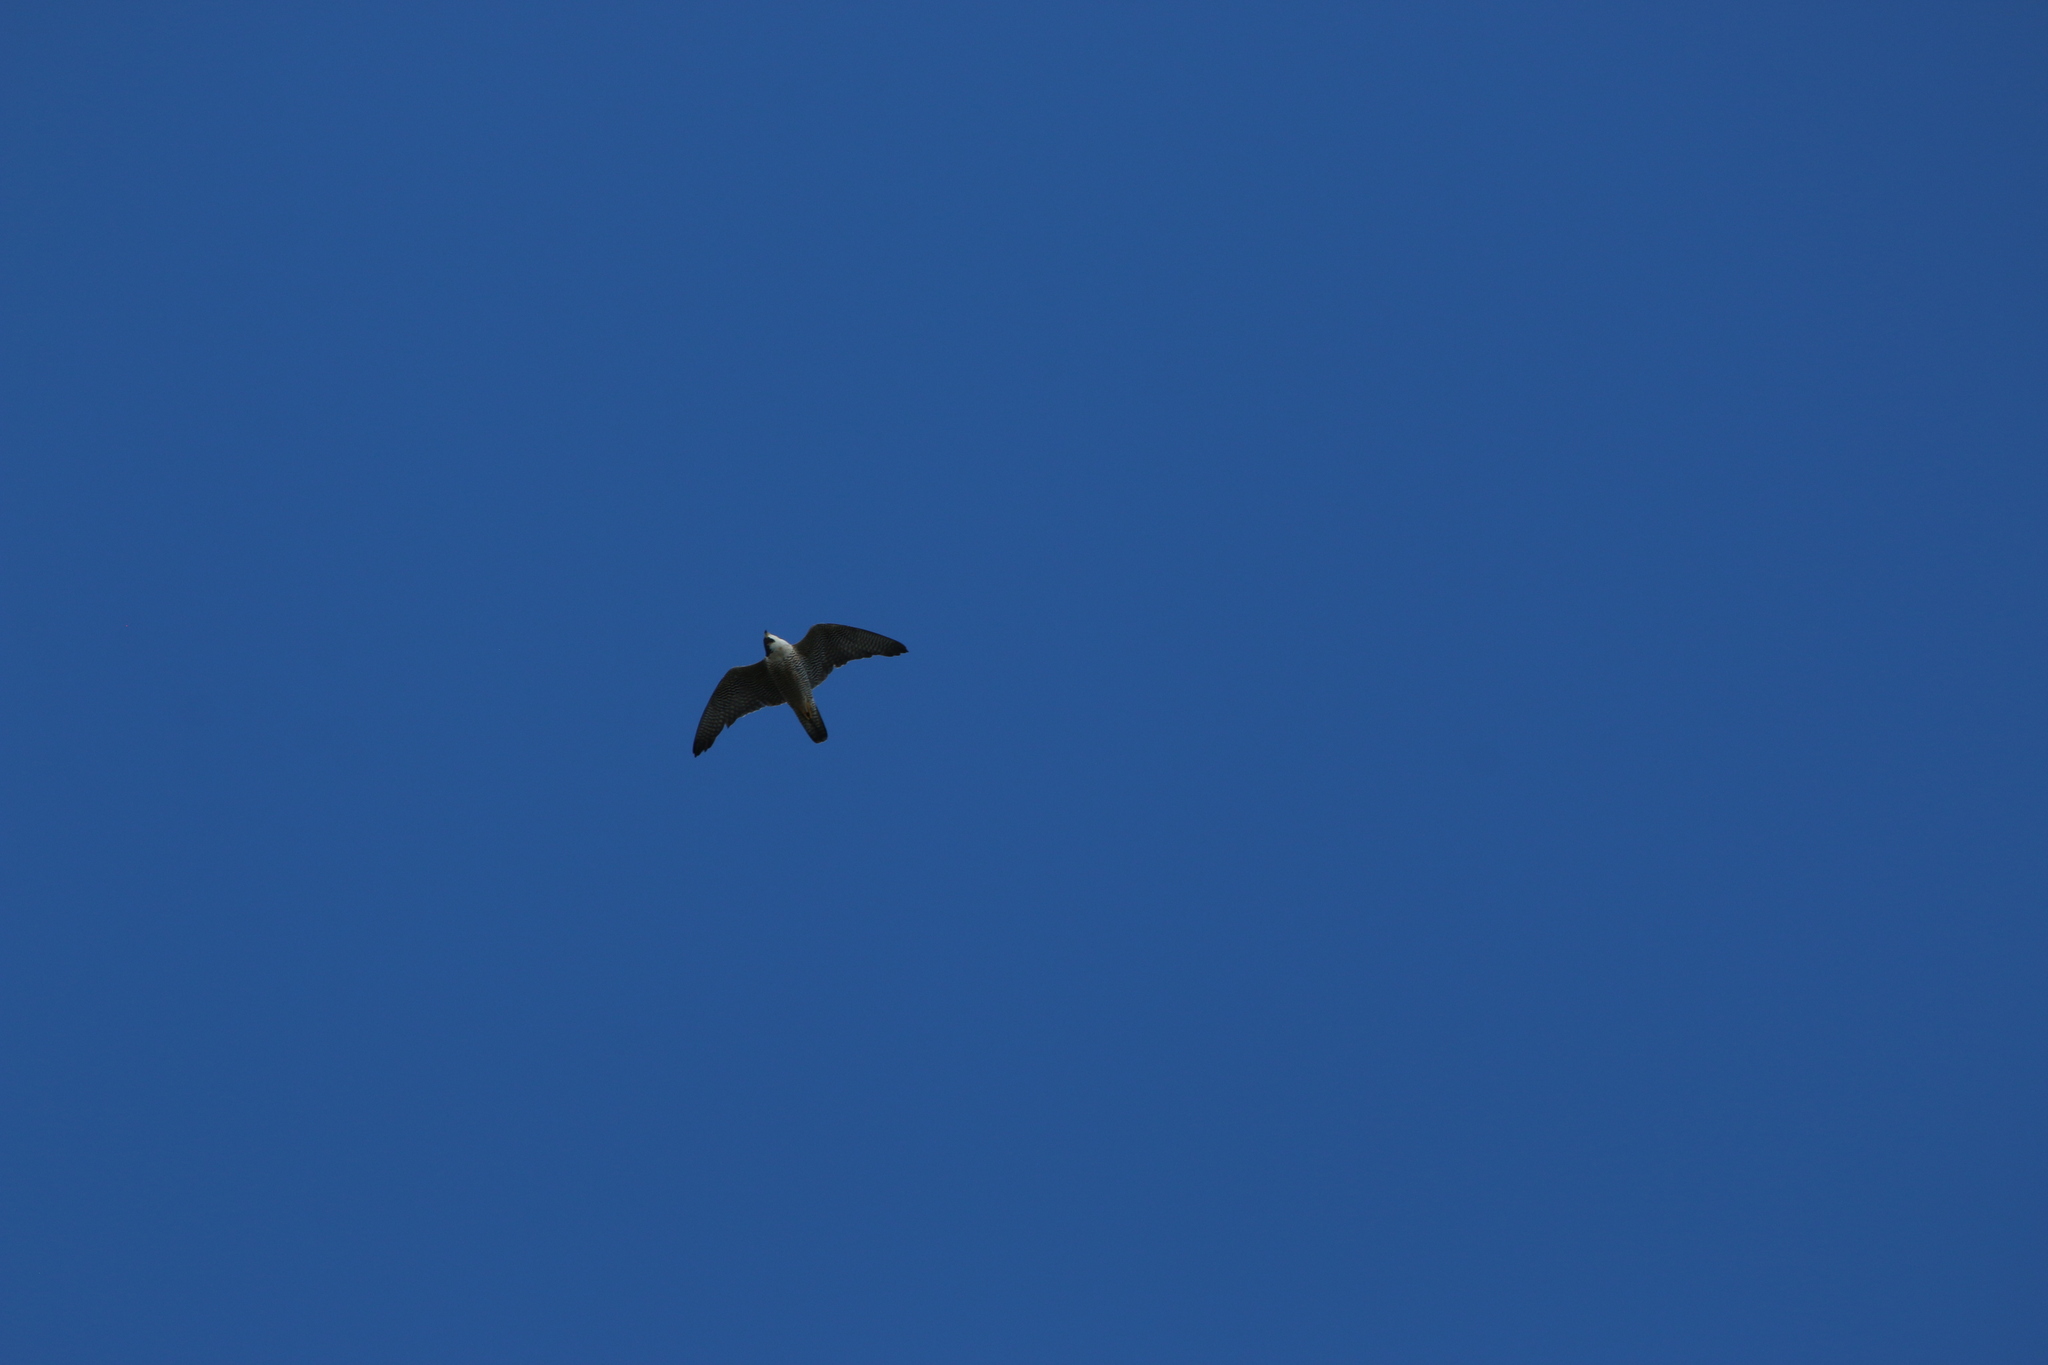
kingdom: Animalia
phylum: Chordata
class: Aves
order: Falconiformes
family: Falconidae
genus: Falco
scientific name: Falco peregrinus
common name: Peregrine falcon
